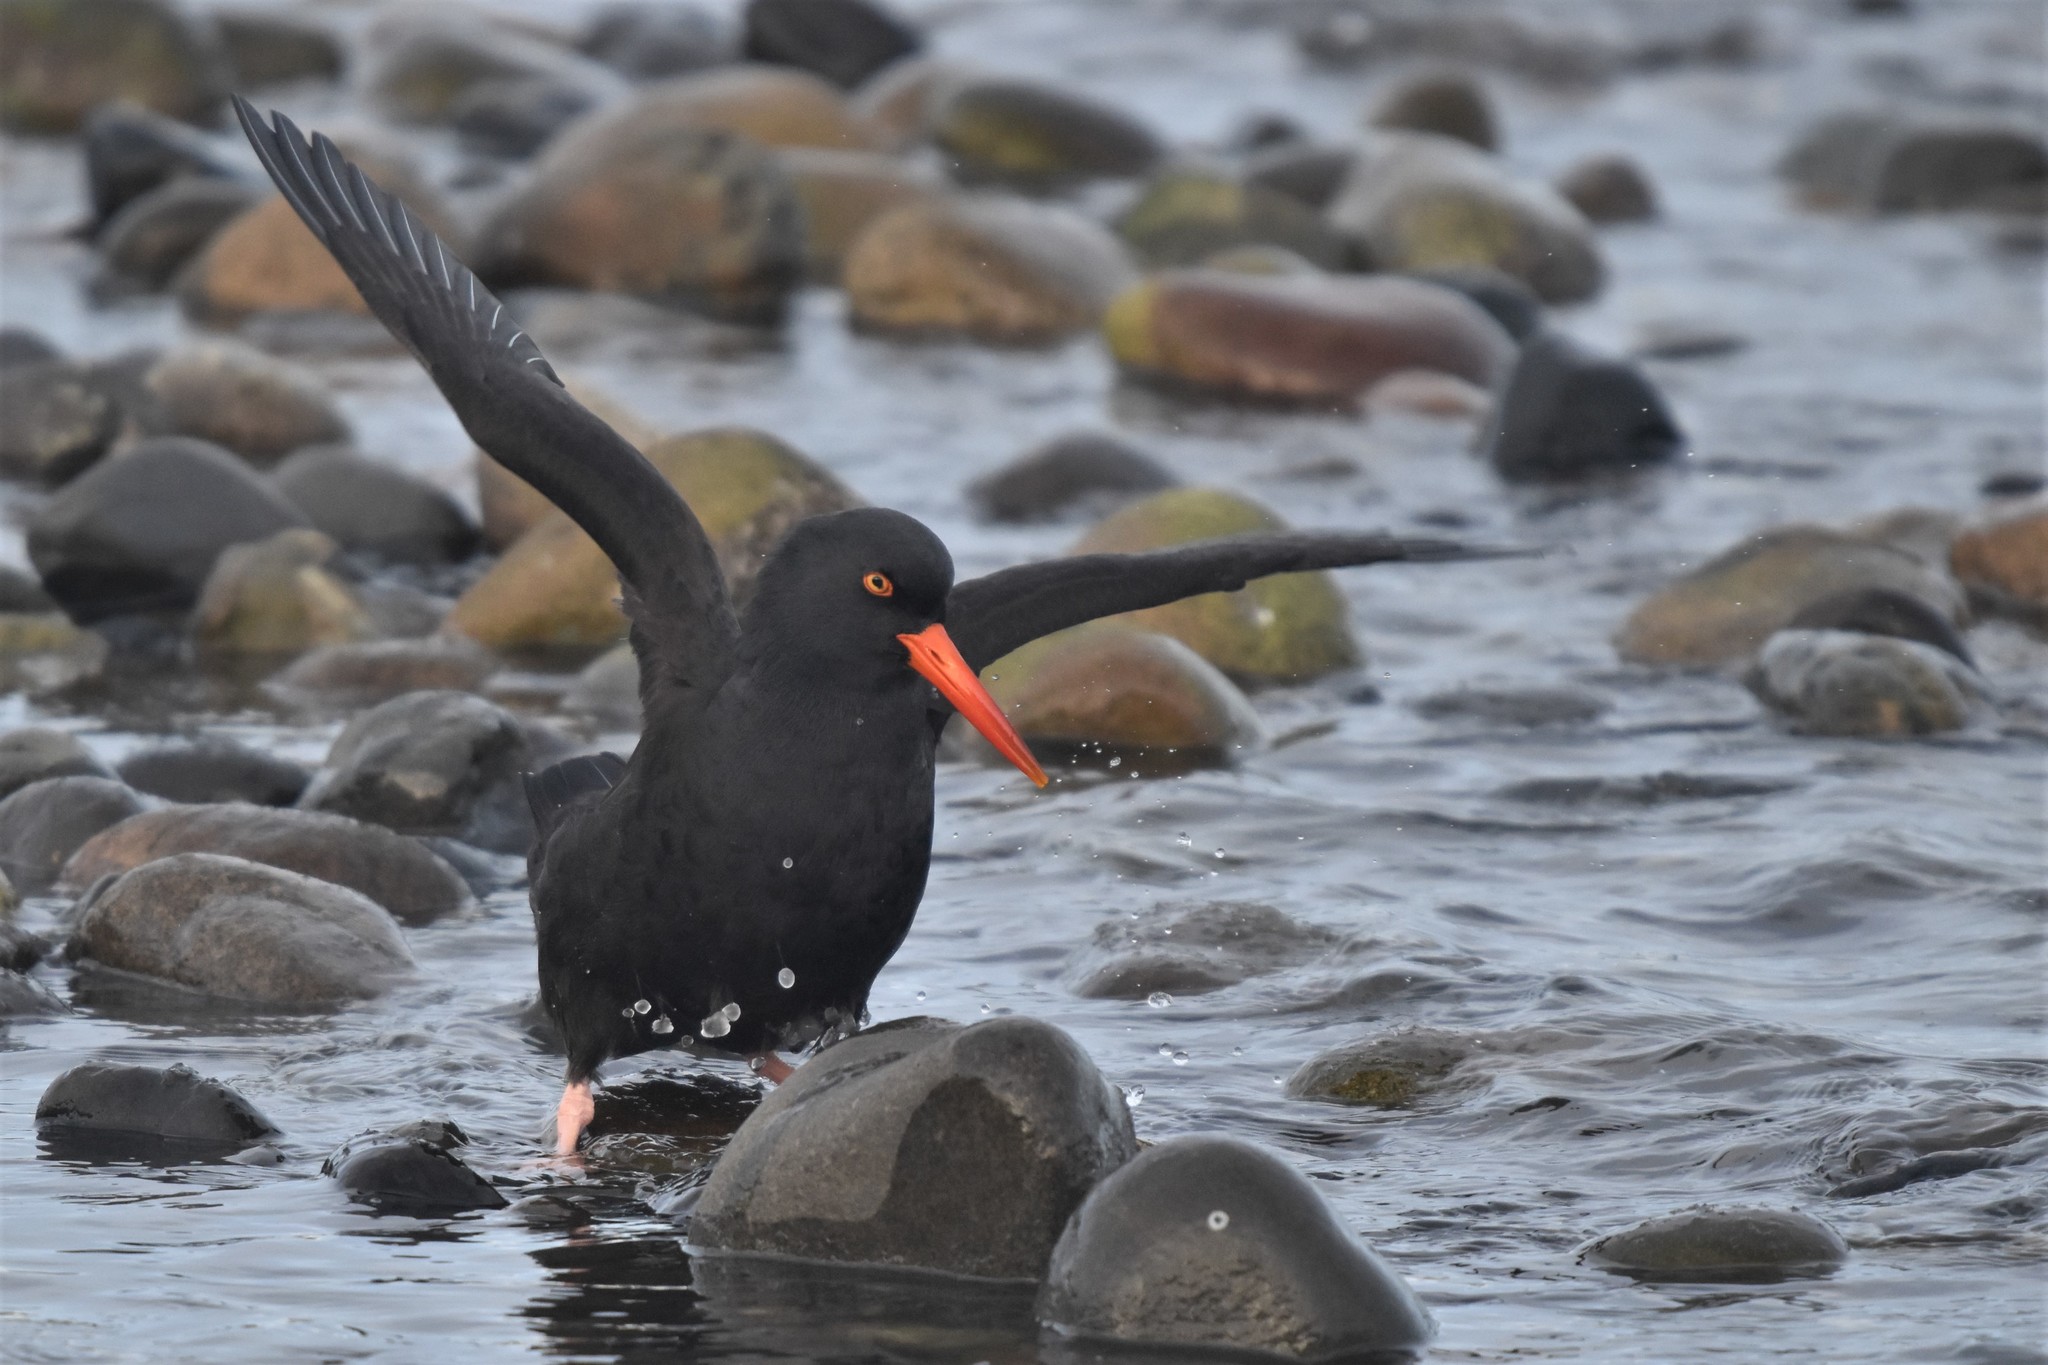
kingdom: Animalia
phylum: Chordata
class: Aves
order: Charadriiformes
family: Haematopodidae
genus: Haematopus
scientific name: Haematopus bachmani
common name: Black oystercatcher
